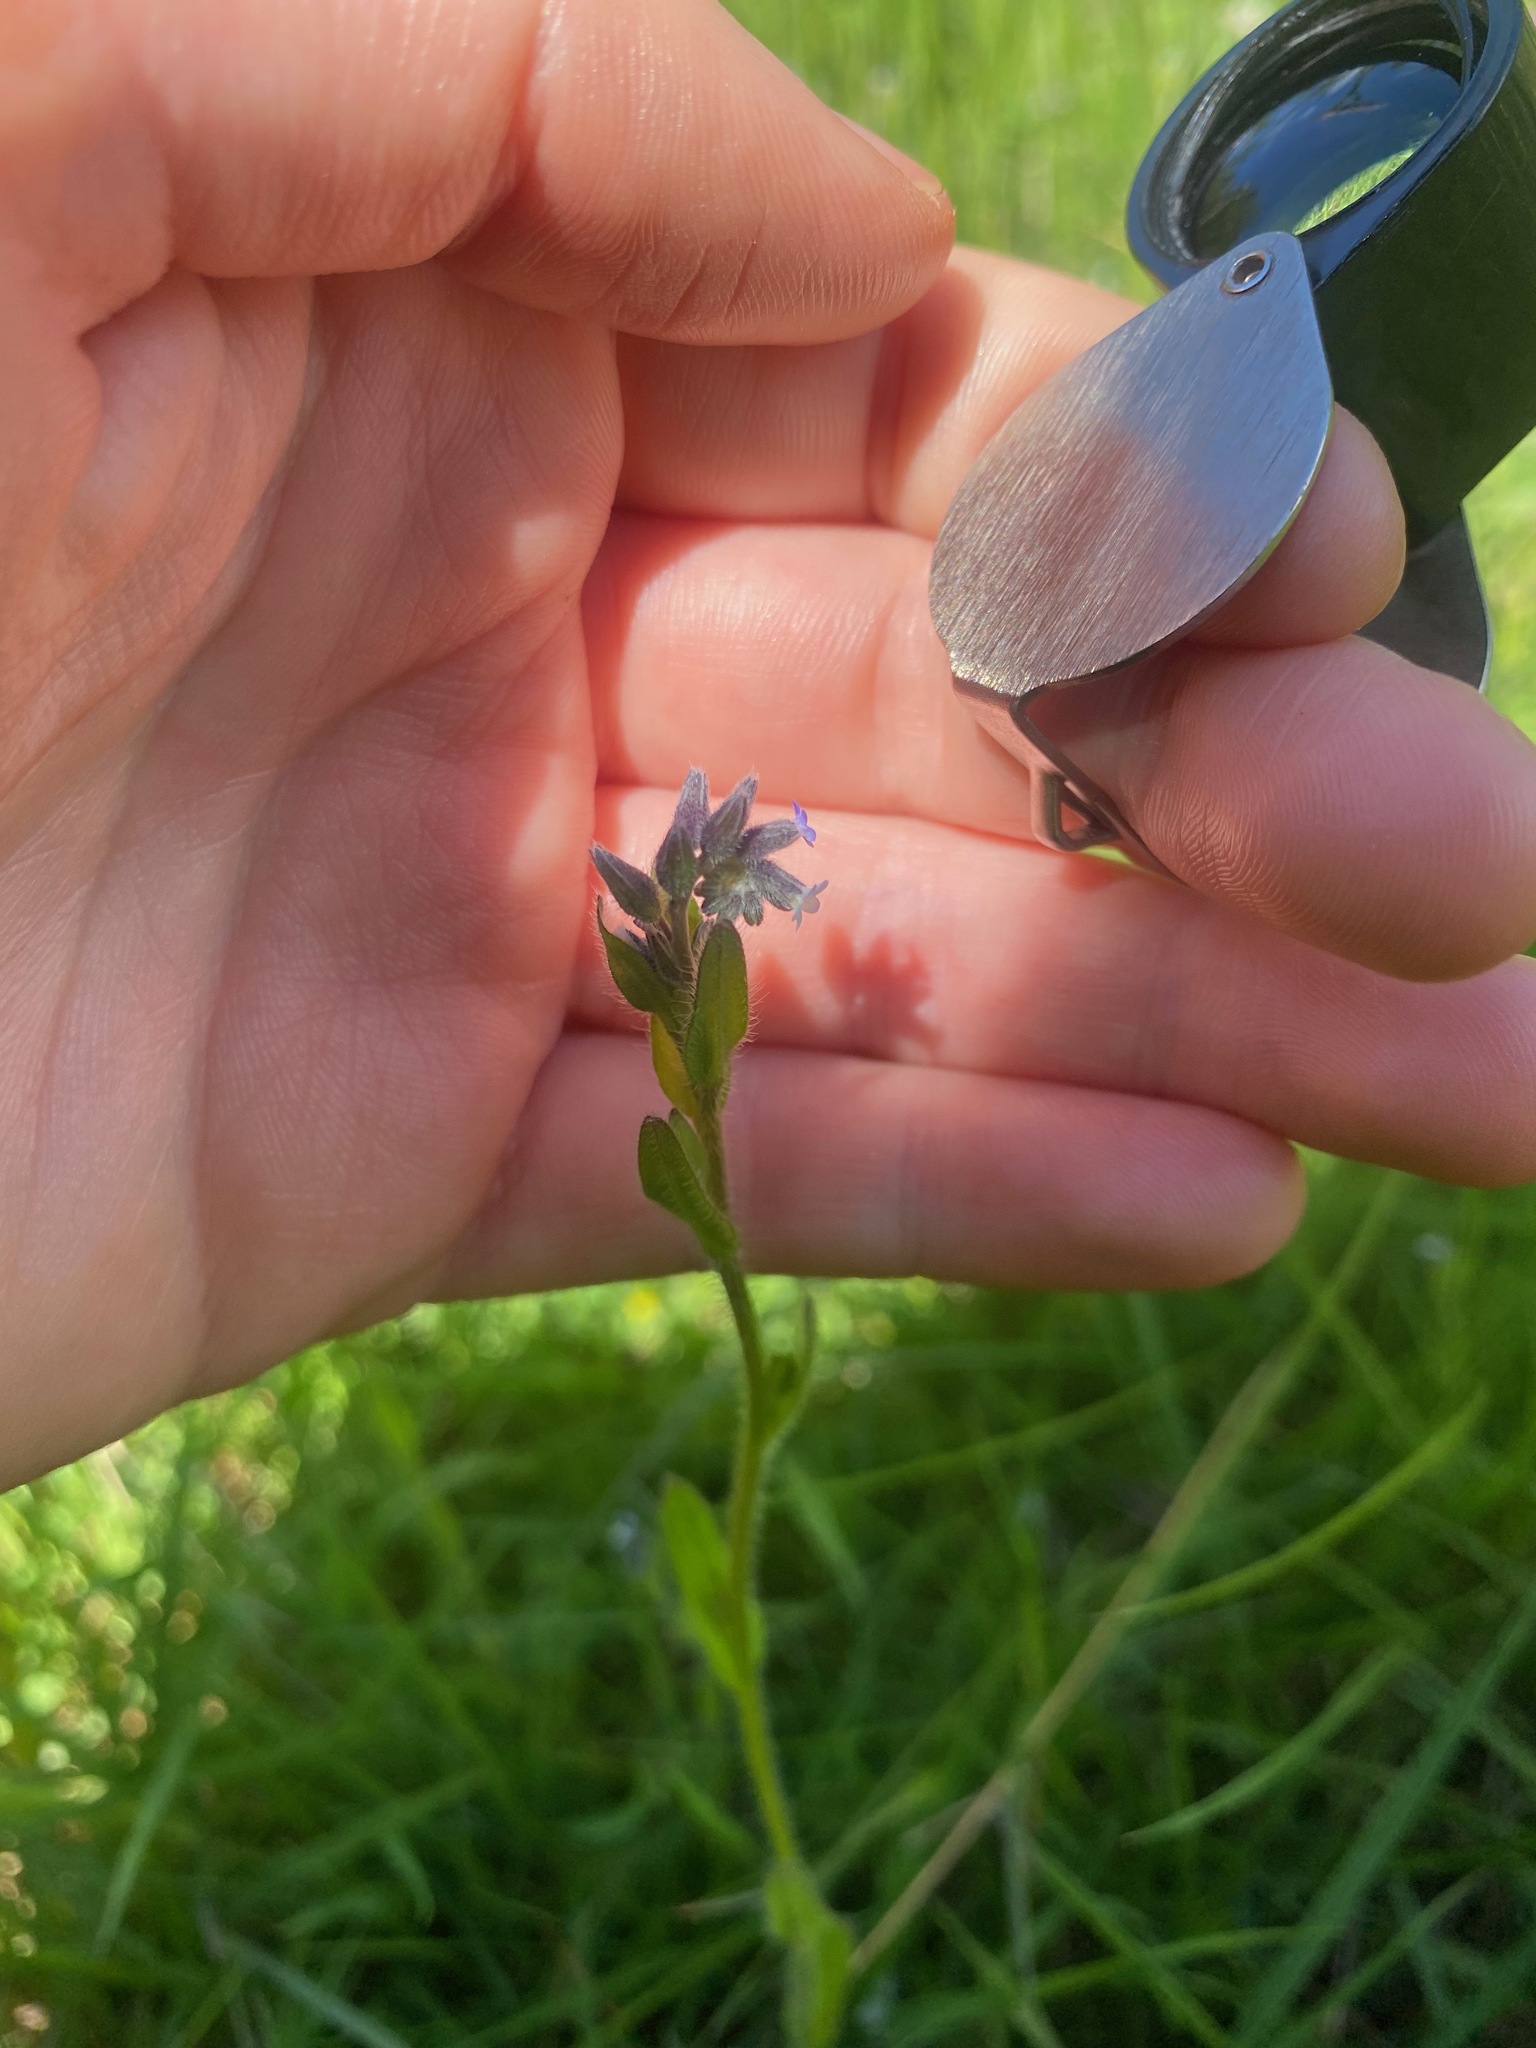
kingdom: Plantae
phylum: Tracheophyta
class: Magnoliopsida
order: Boraginales
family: Boraginaceae
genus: Myosotis
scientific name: Myosotis discolor
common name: Changing forget-me-not
